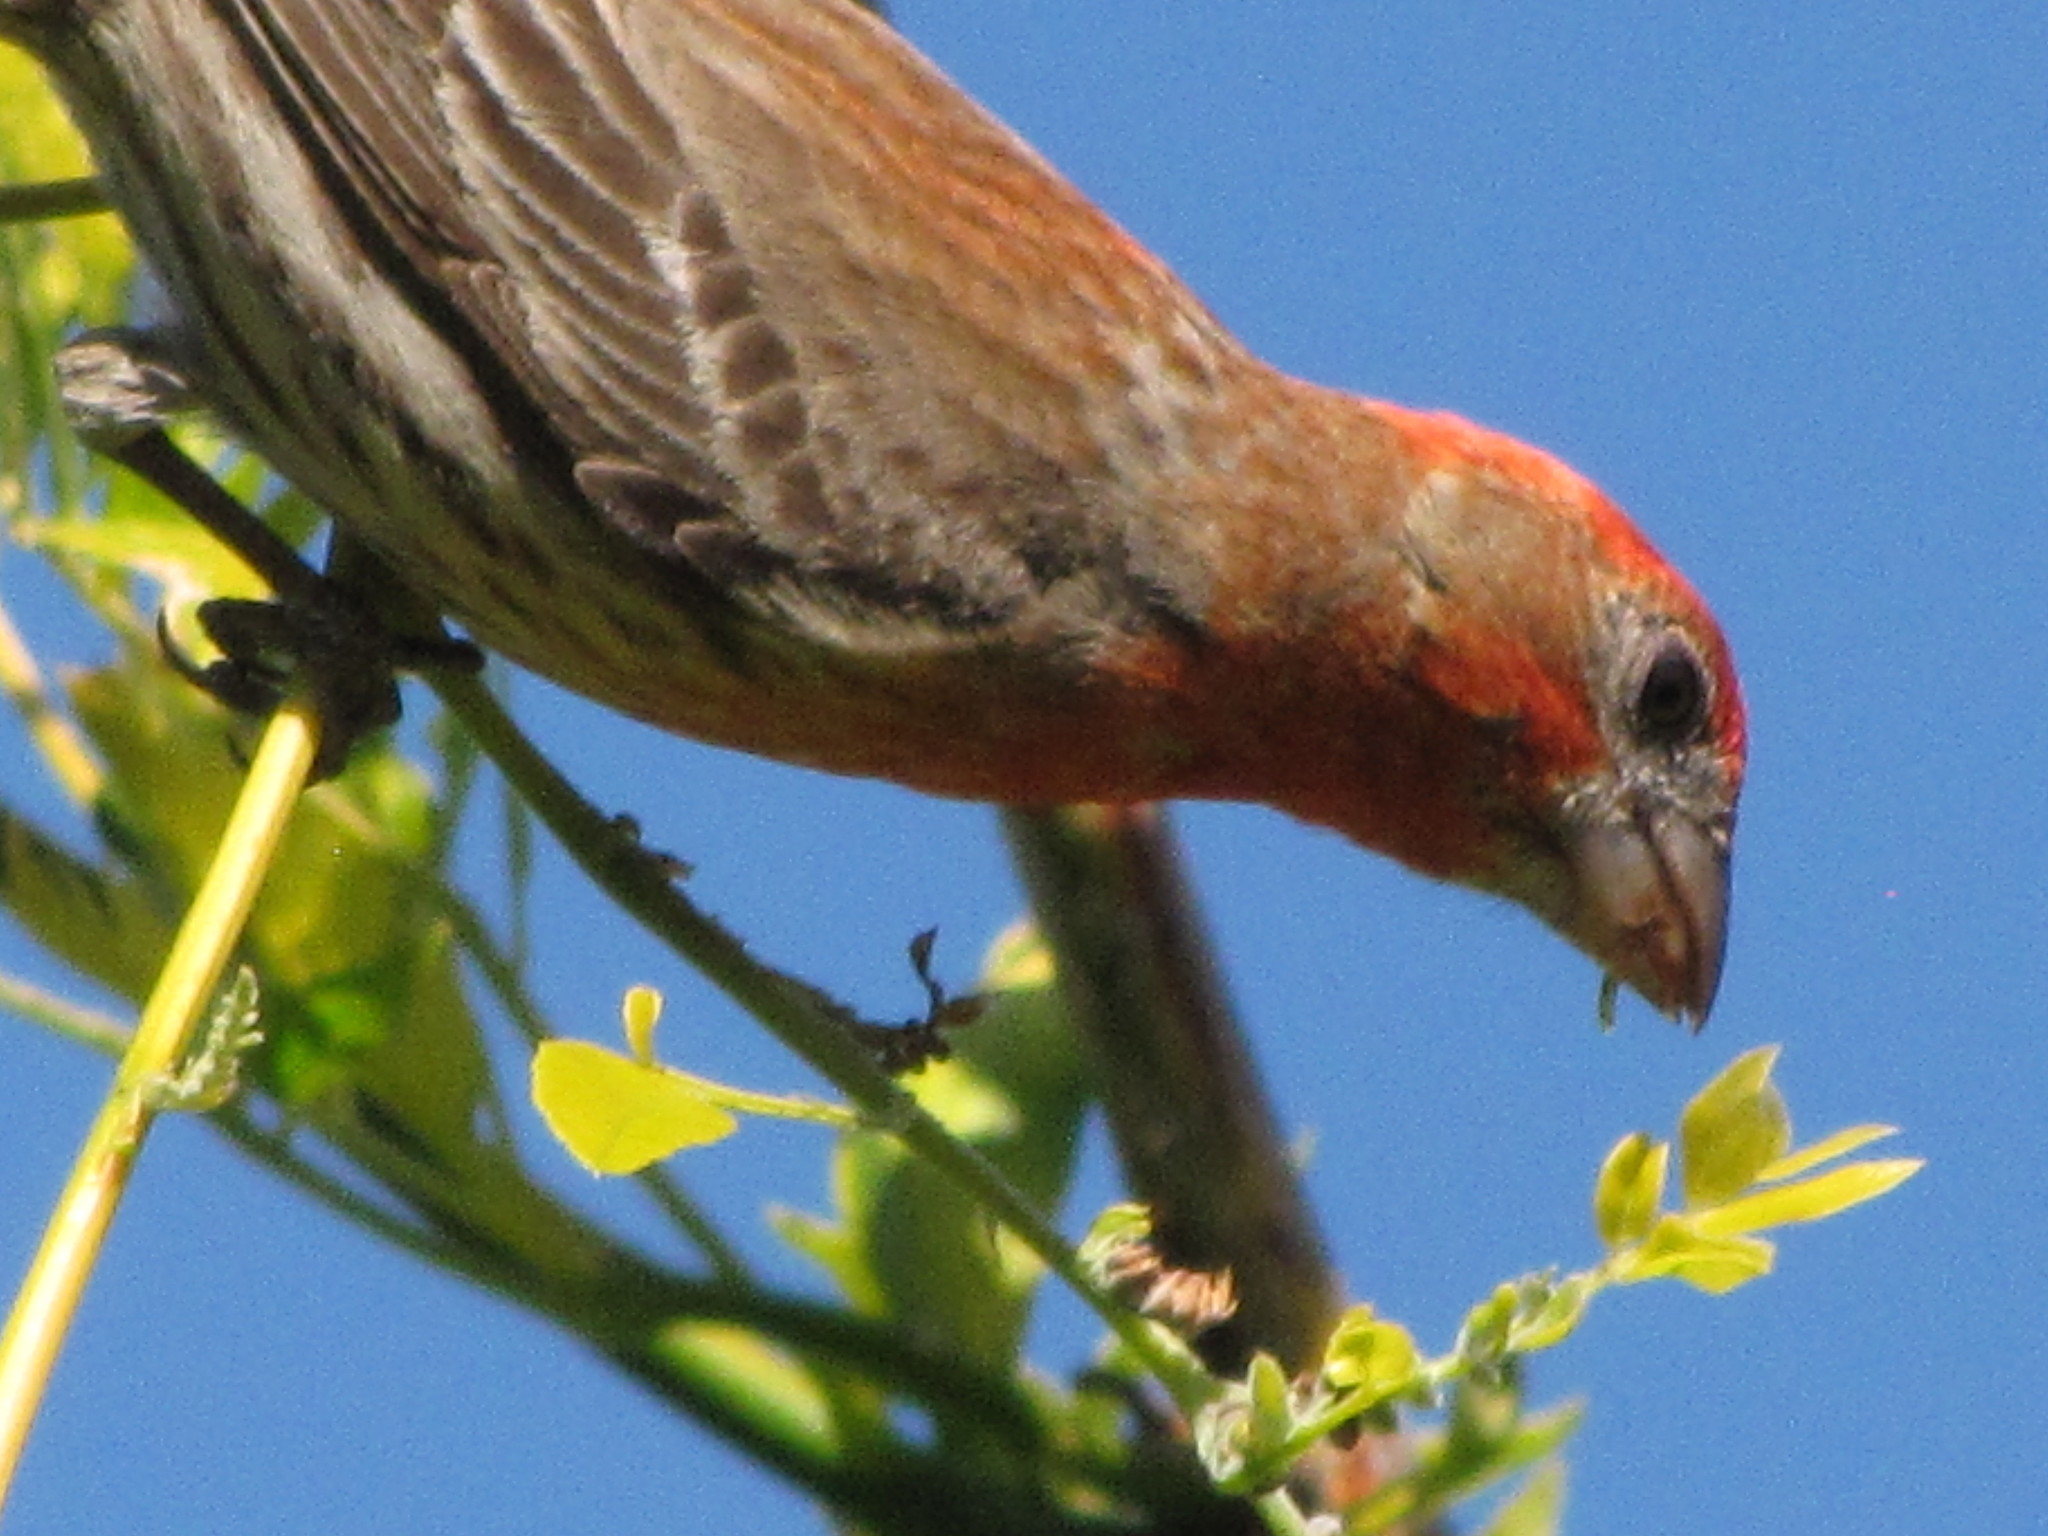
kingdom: Animalia
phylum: Chordata
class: Aves
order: Passeriformes
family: Fringillidae
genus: Haemorhous
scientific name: Haemorhous mexicanus
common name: House finch
